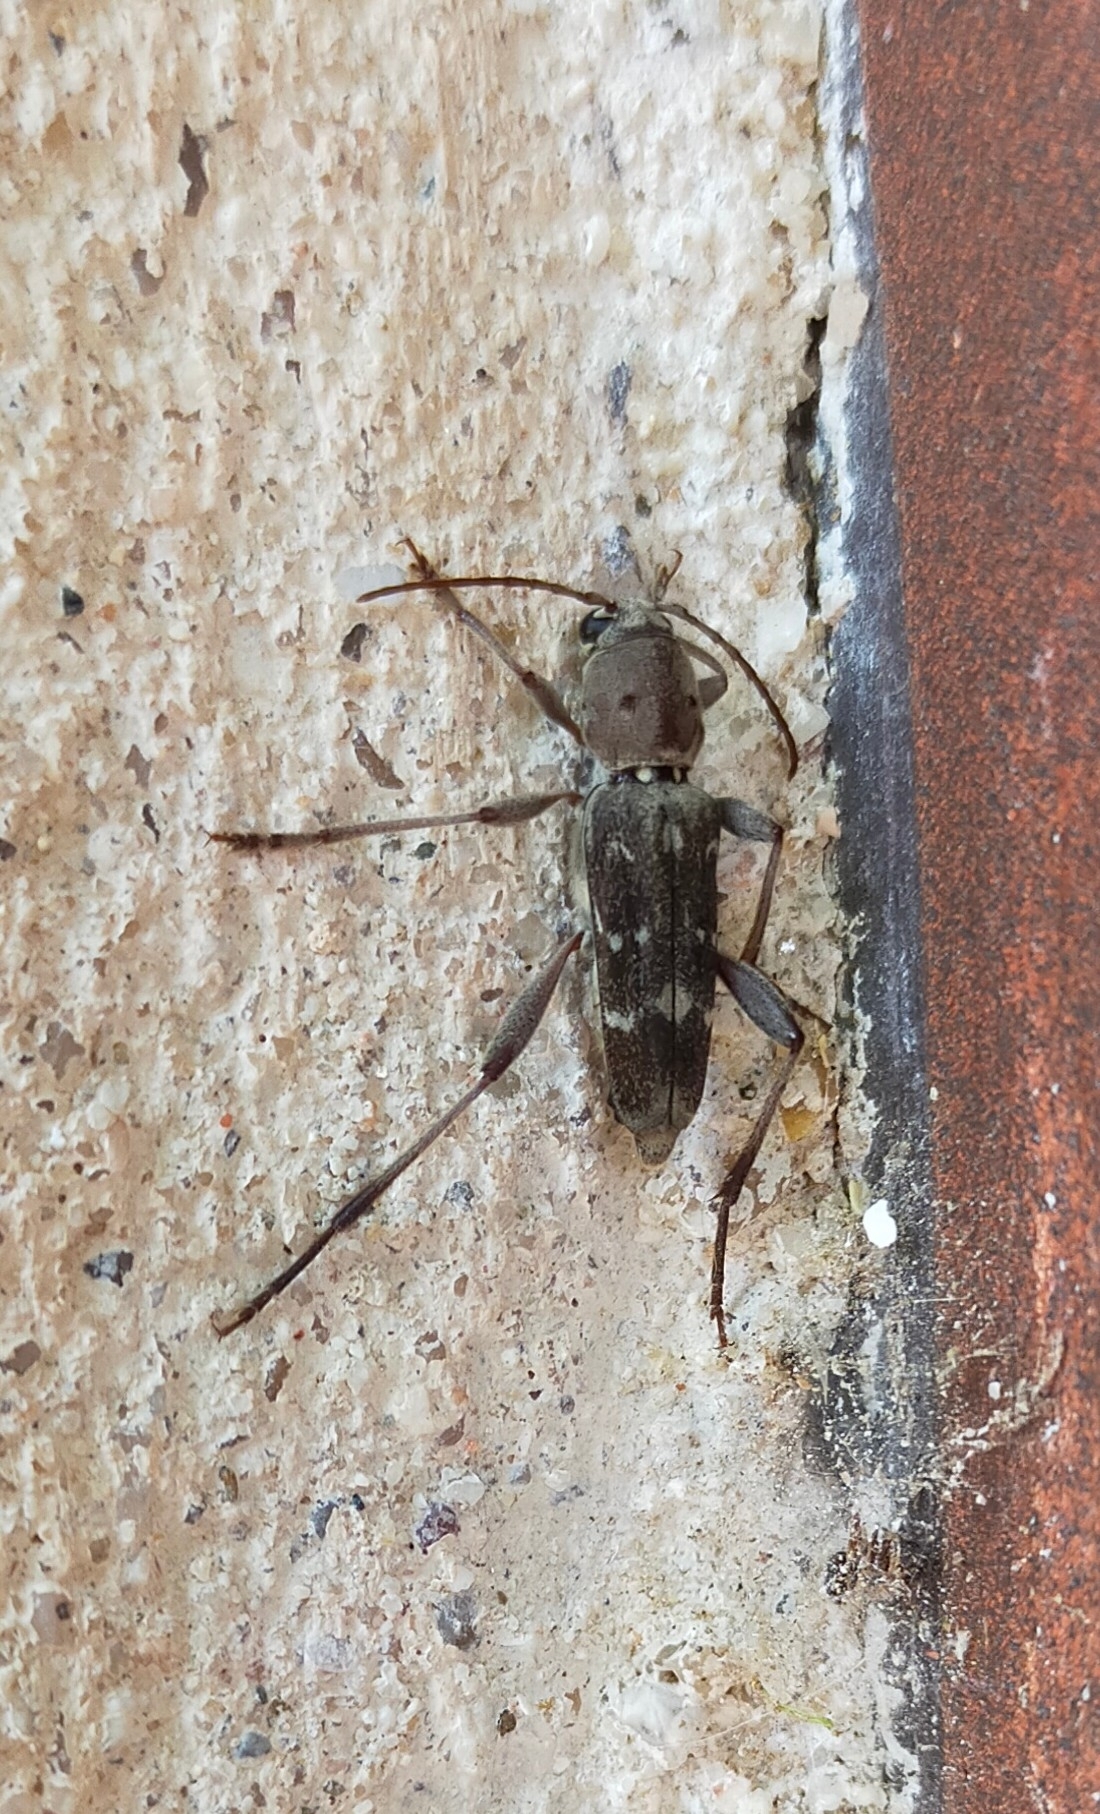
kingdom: Animalia
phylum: Arthropoda
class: Insecta
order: Coleoptera
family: Cerambycidae
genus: Xylotrechus
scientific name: Xylotrechus smei
